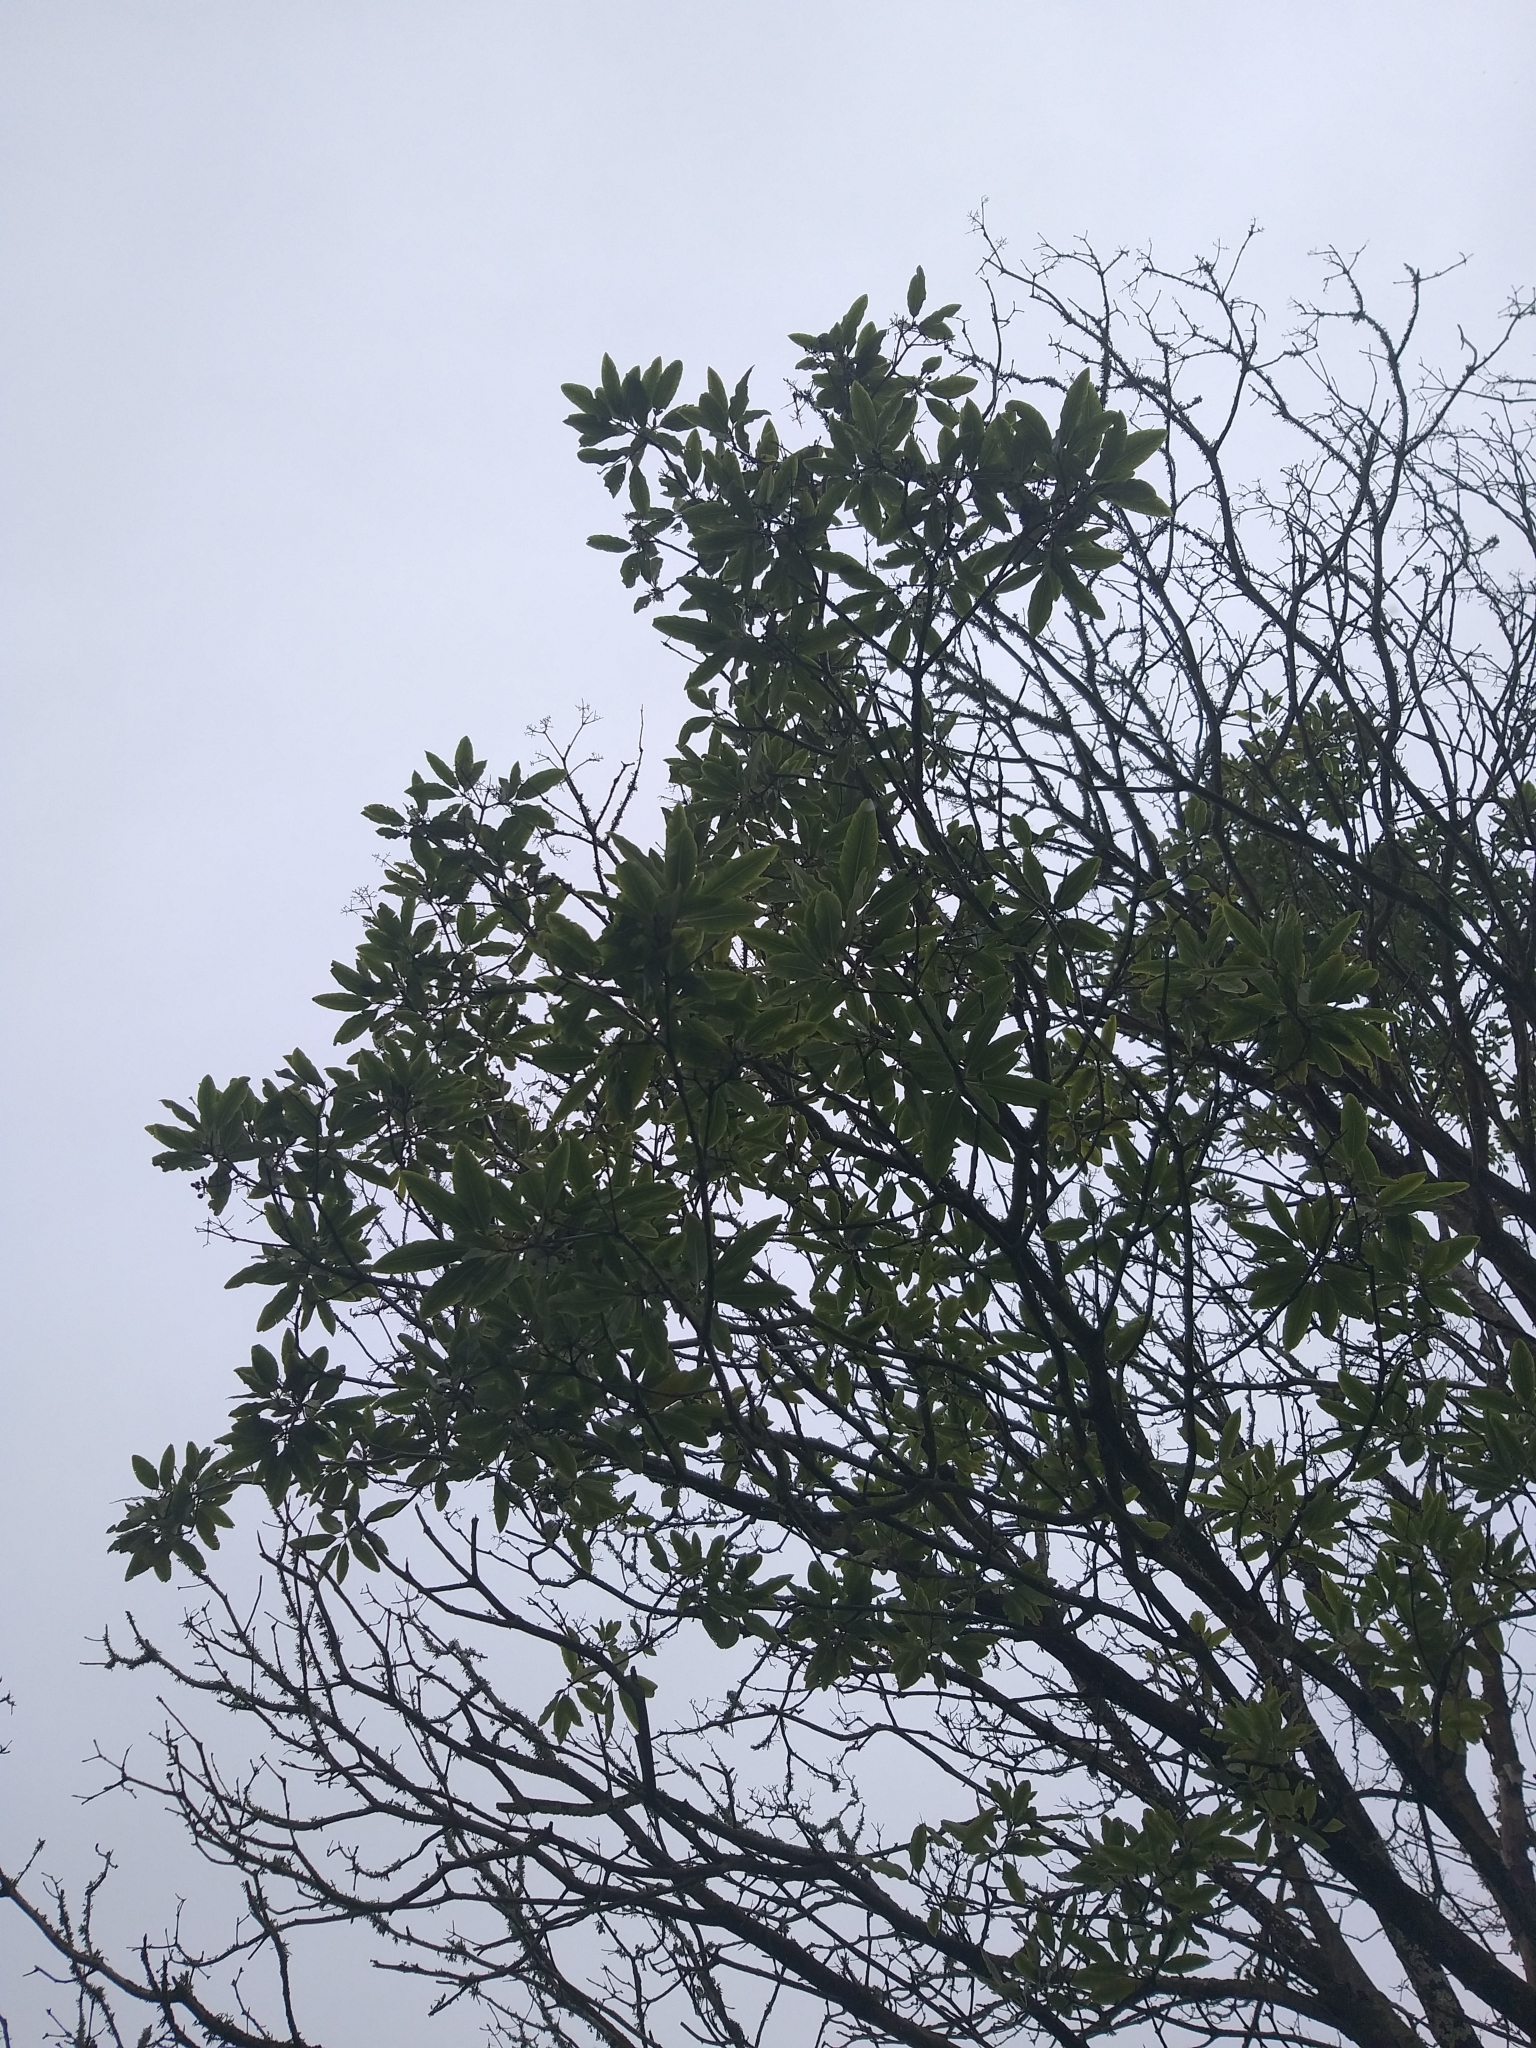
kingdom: Plantae
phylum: Tracheophyta
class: Magnoliopsida
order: Apiales
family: Pittosporaceae
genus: Pittosporum
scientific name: Pittosporum eugenioides
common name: Lemonwood
